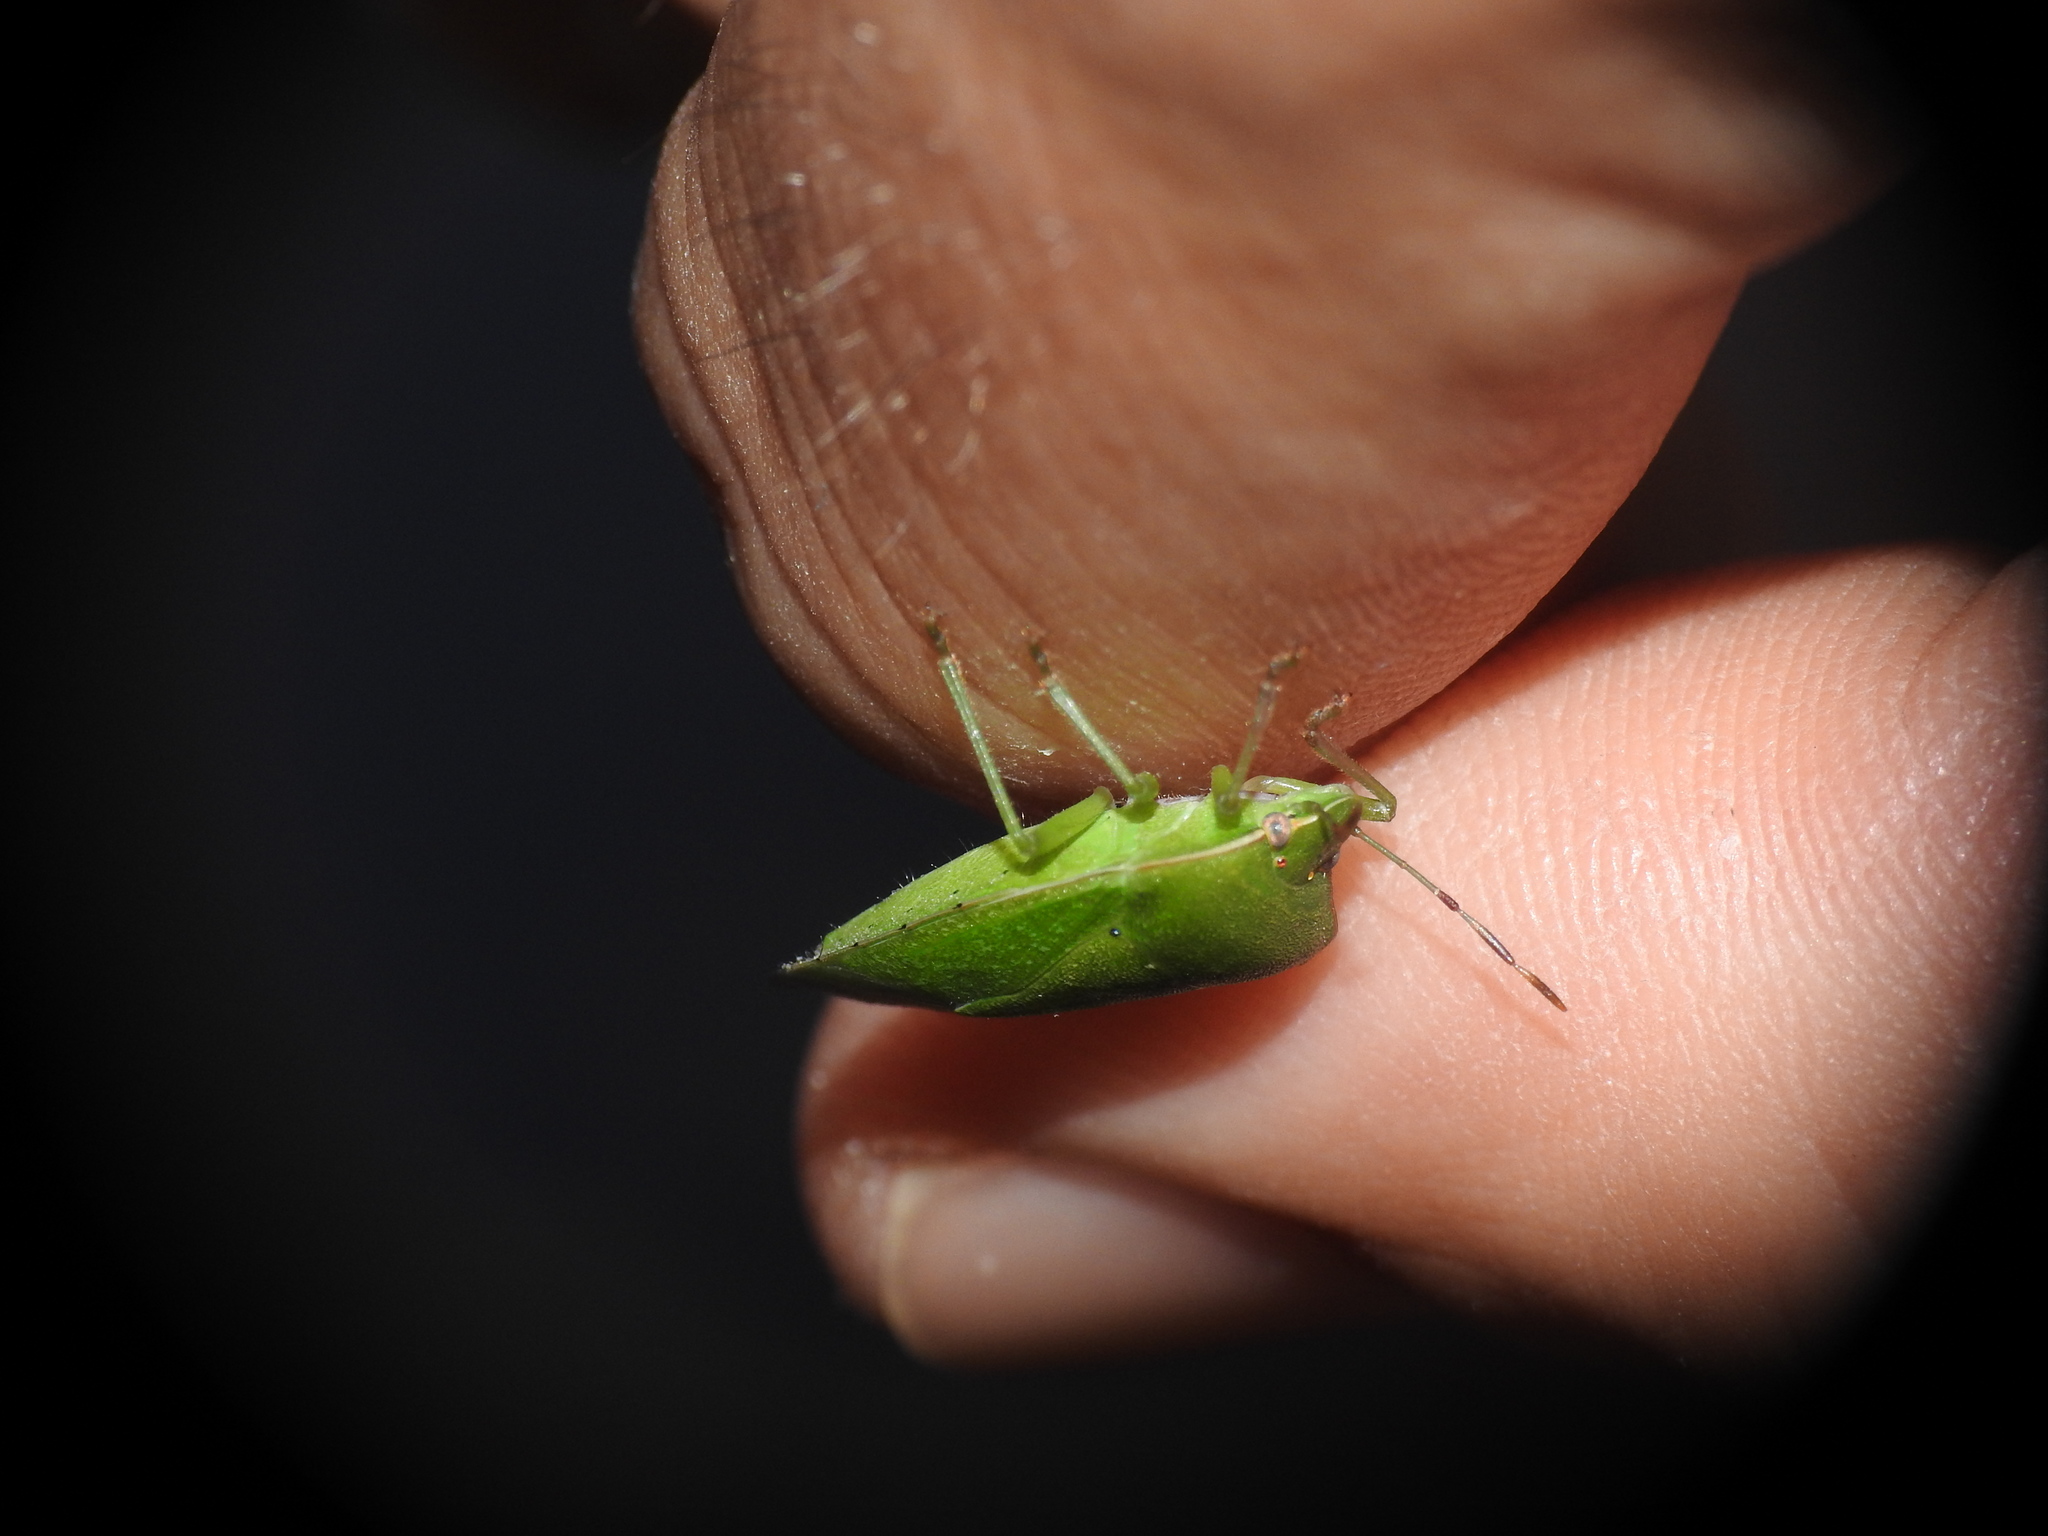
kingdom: Animalia
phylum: Arthropoda
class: Insecta
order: Hemiptera
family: Pentatomidae
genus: Nezara
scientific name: Nezara viridula
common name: Southern green stink bug
